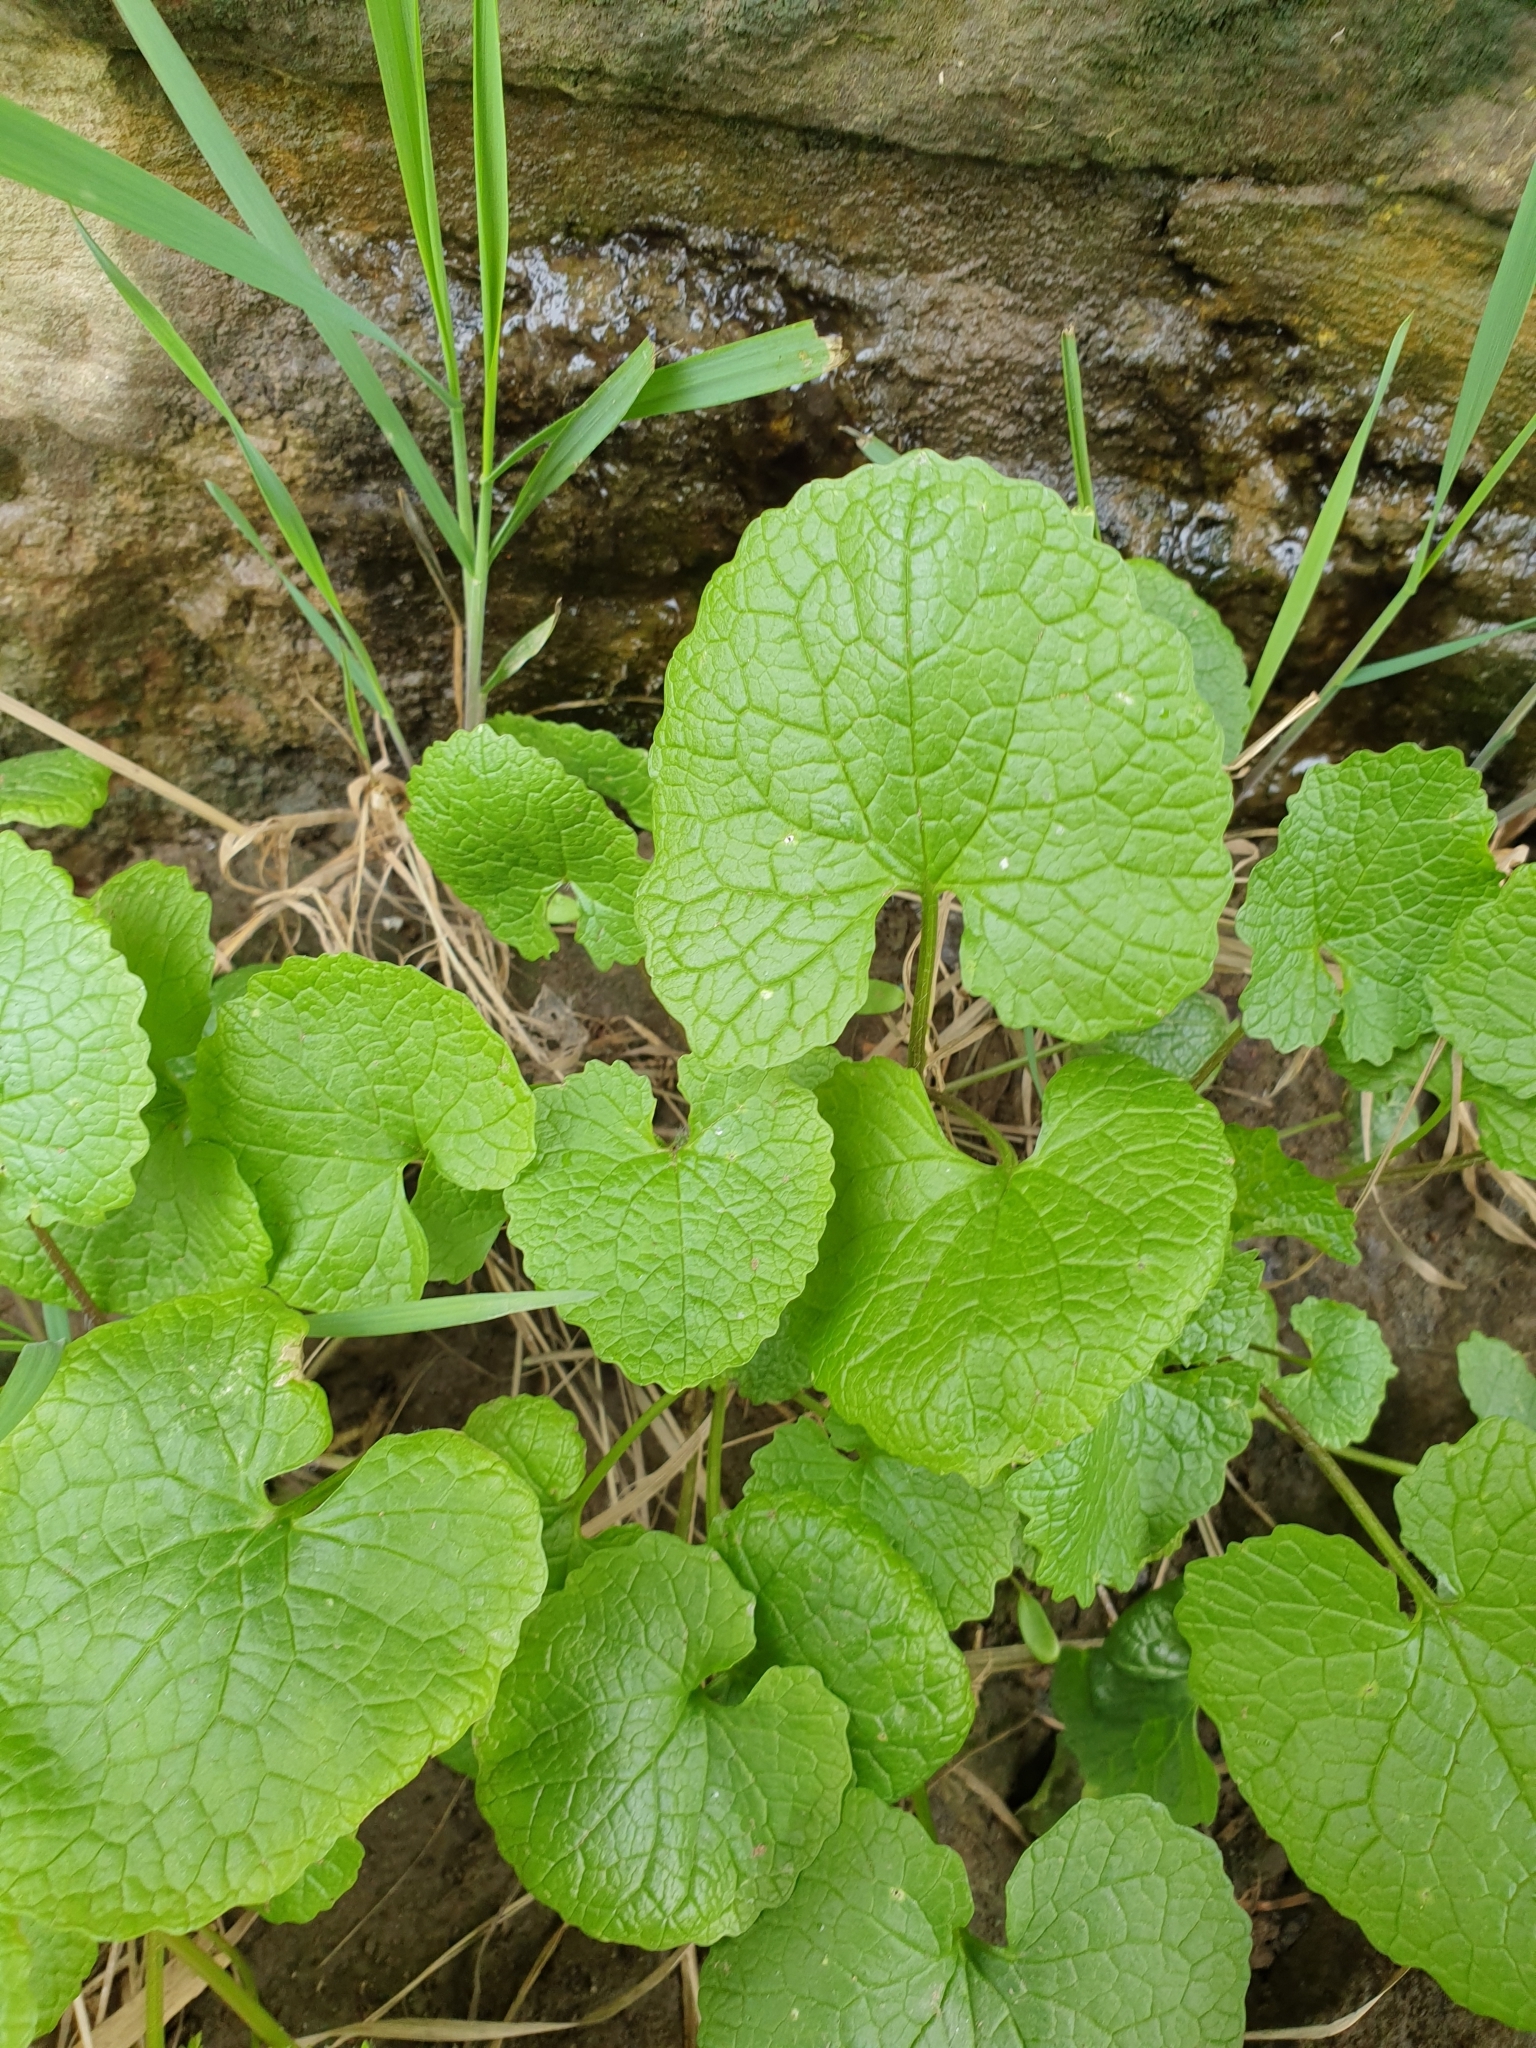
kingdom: Plantae
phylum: Tracheophyta
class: Magnoliopsida
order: Brassicales
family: Brassicaceae
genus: Alliaria
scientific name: Alliaria petiolata
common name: Garlic mustard
